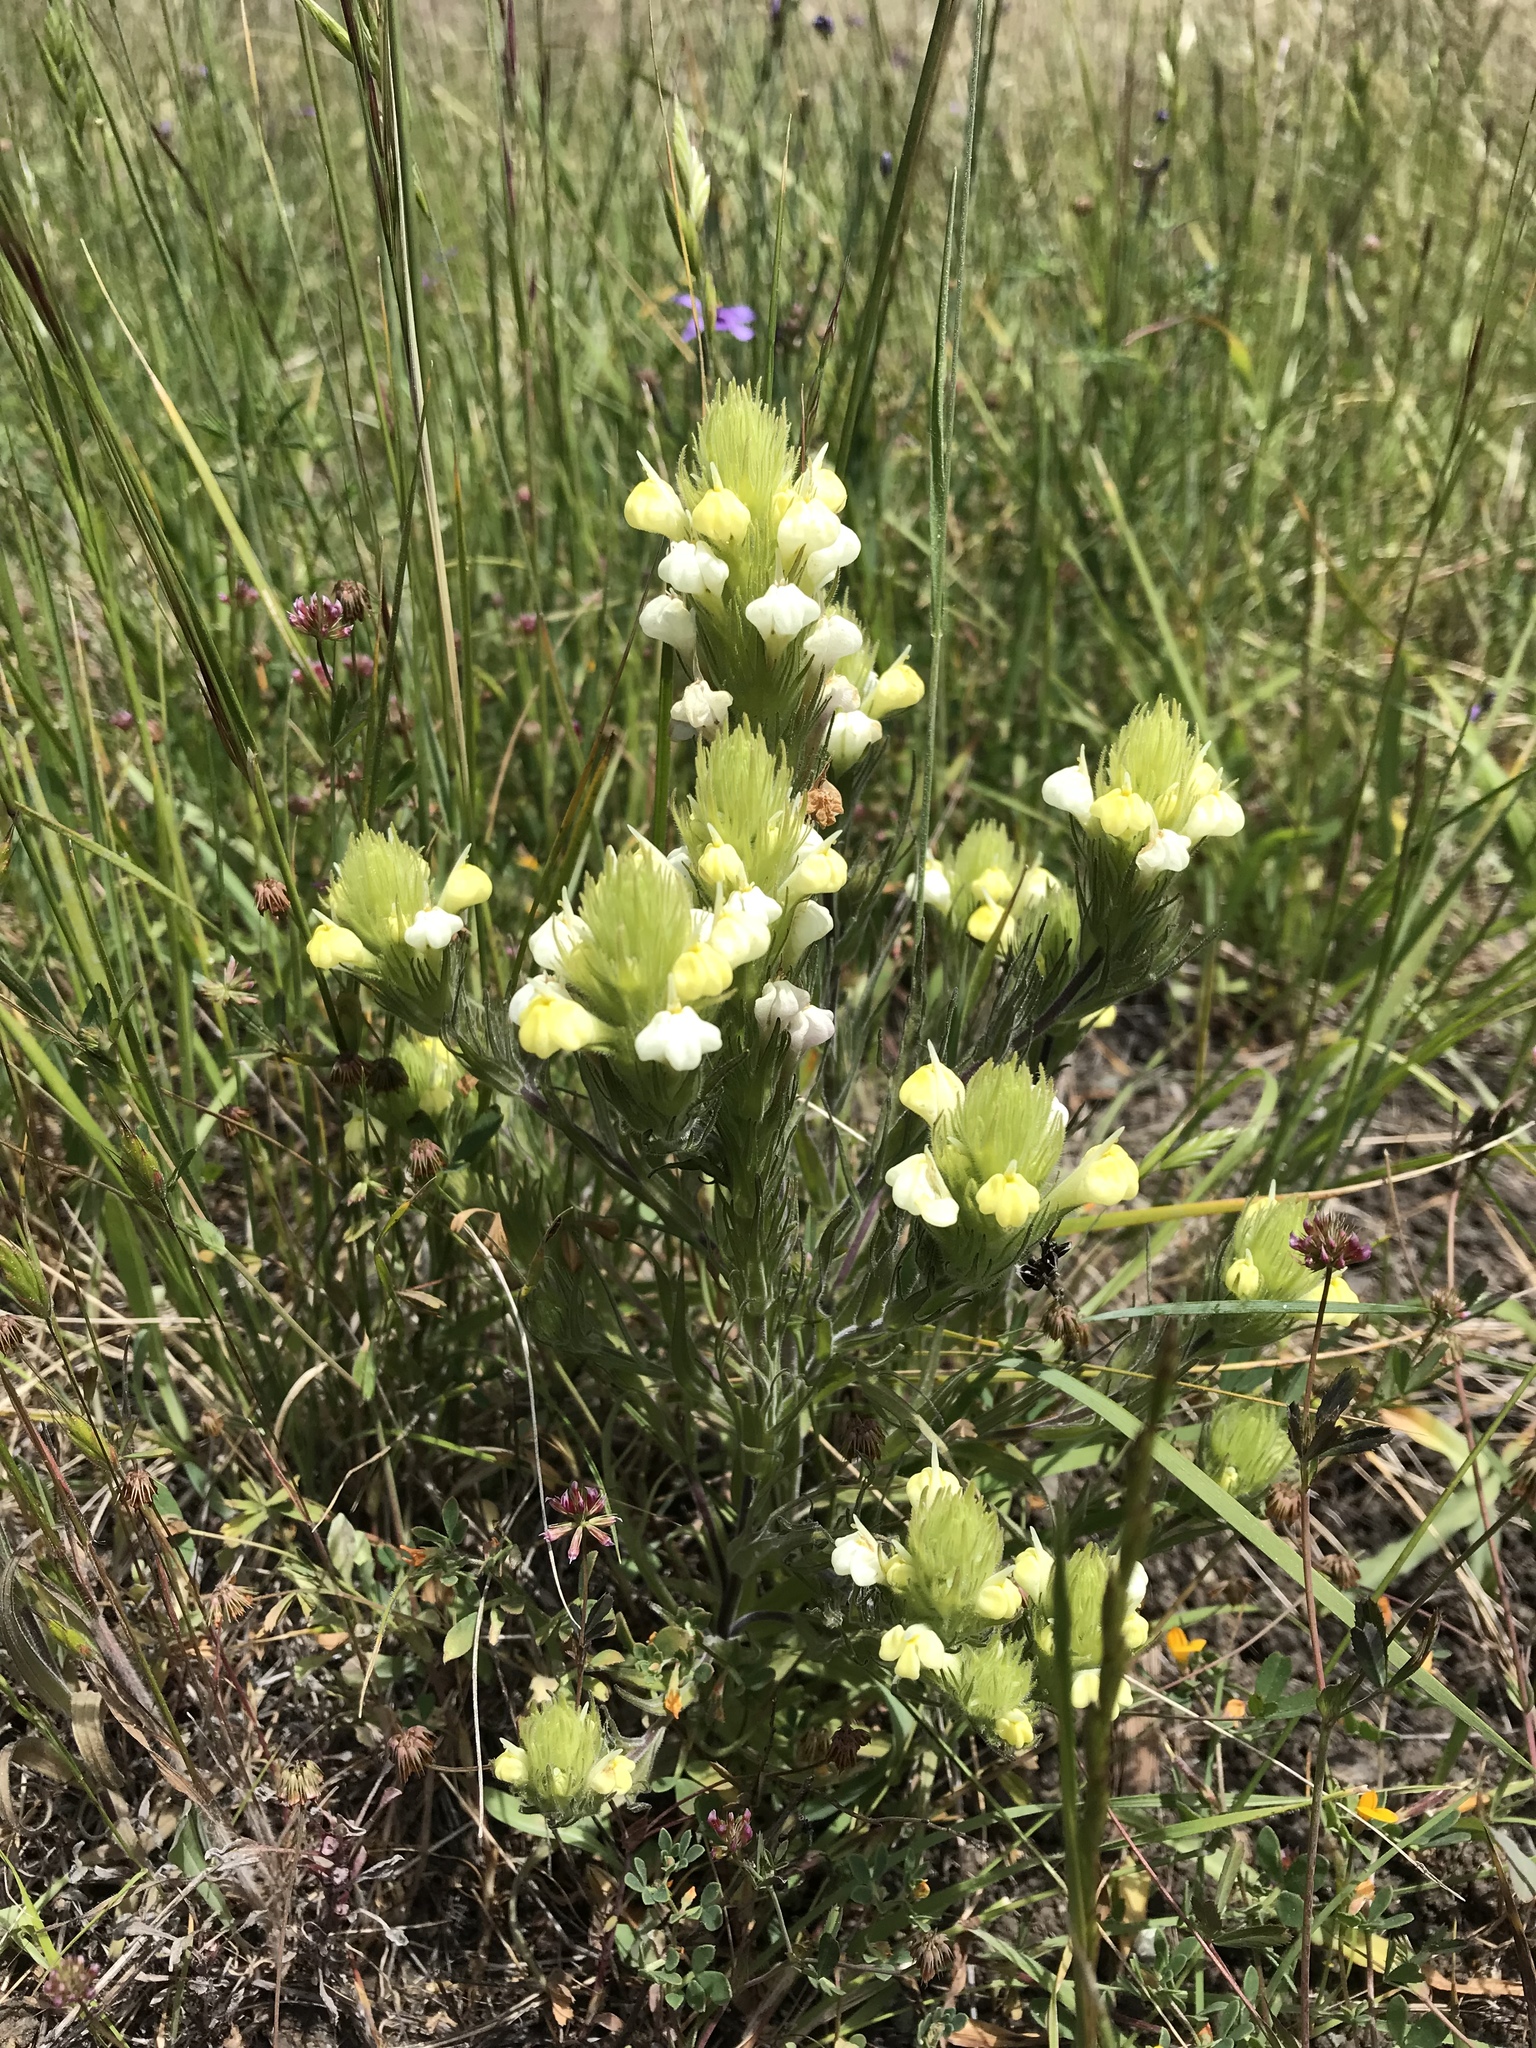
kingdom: Plantae
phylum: Tracheophyta
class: Magnoliopsida
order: Lamiales
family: Orobanchaceae
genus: Castilleja
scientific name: Castilleja rubicundula
